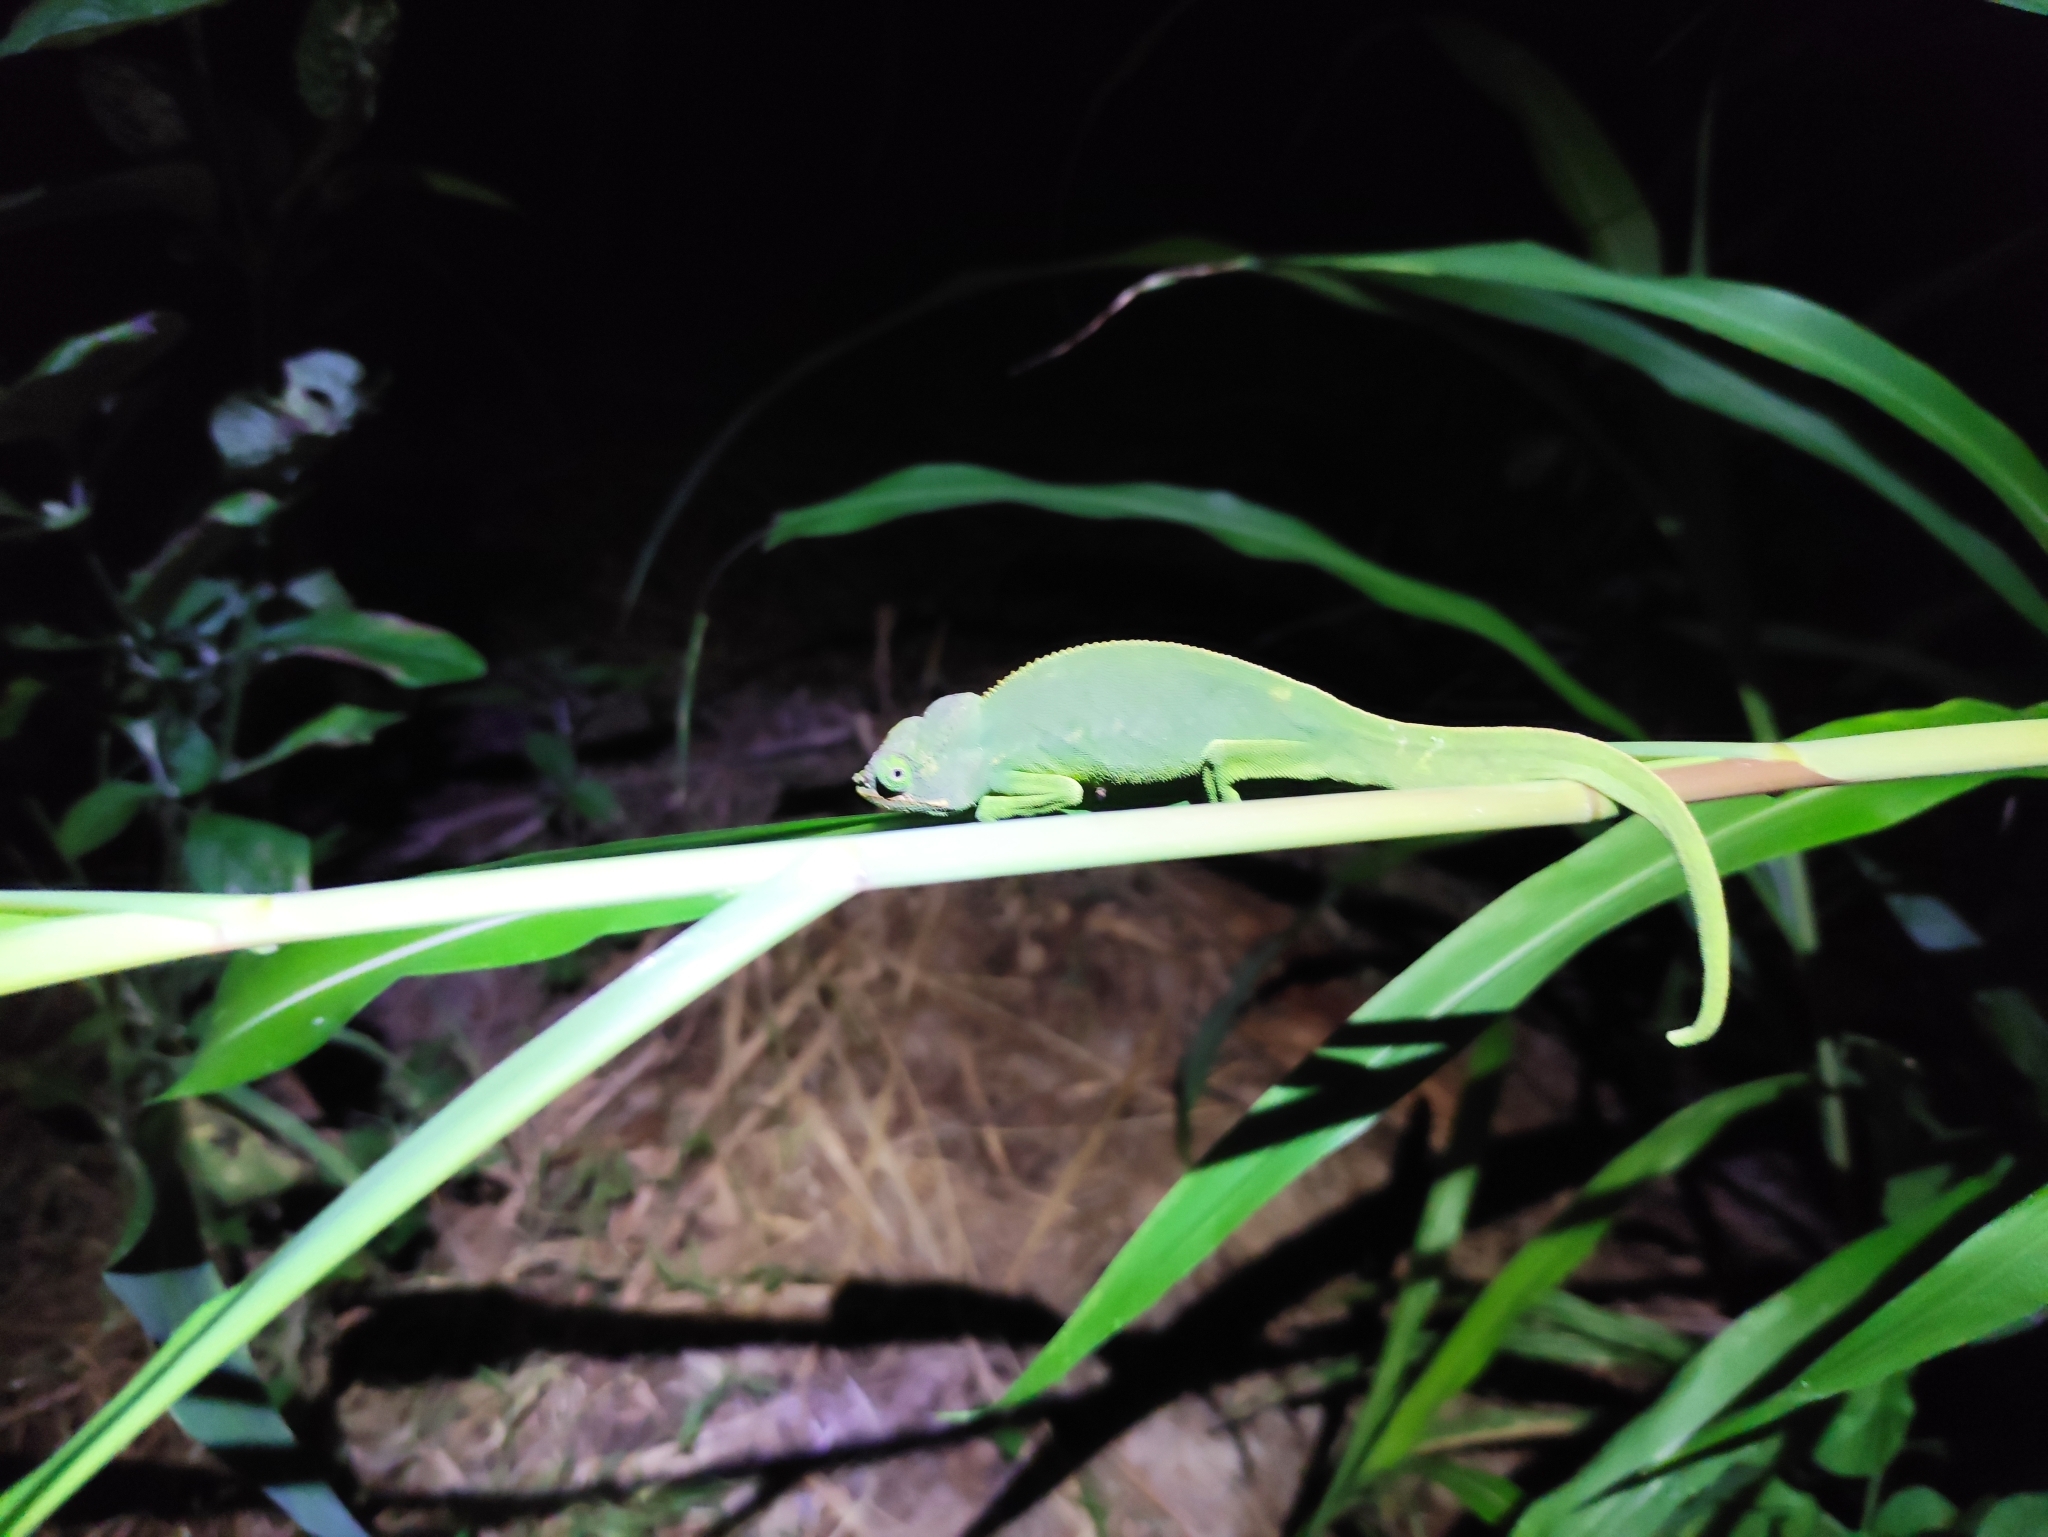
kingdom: Animalia
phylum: Chordata
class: Squamata
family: Chamaeleonidae
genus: Furcifer
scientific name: Furcifer polleni
